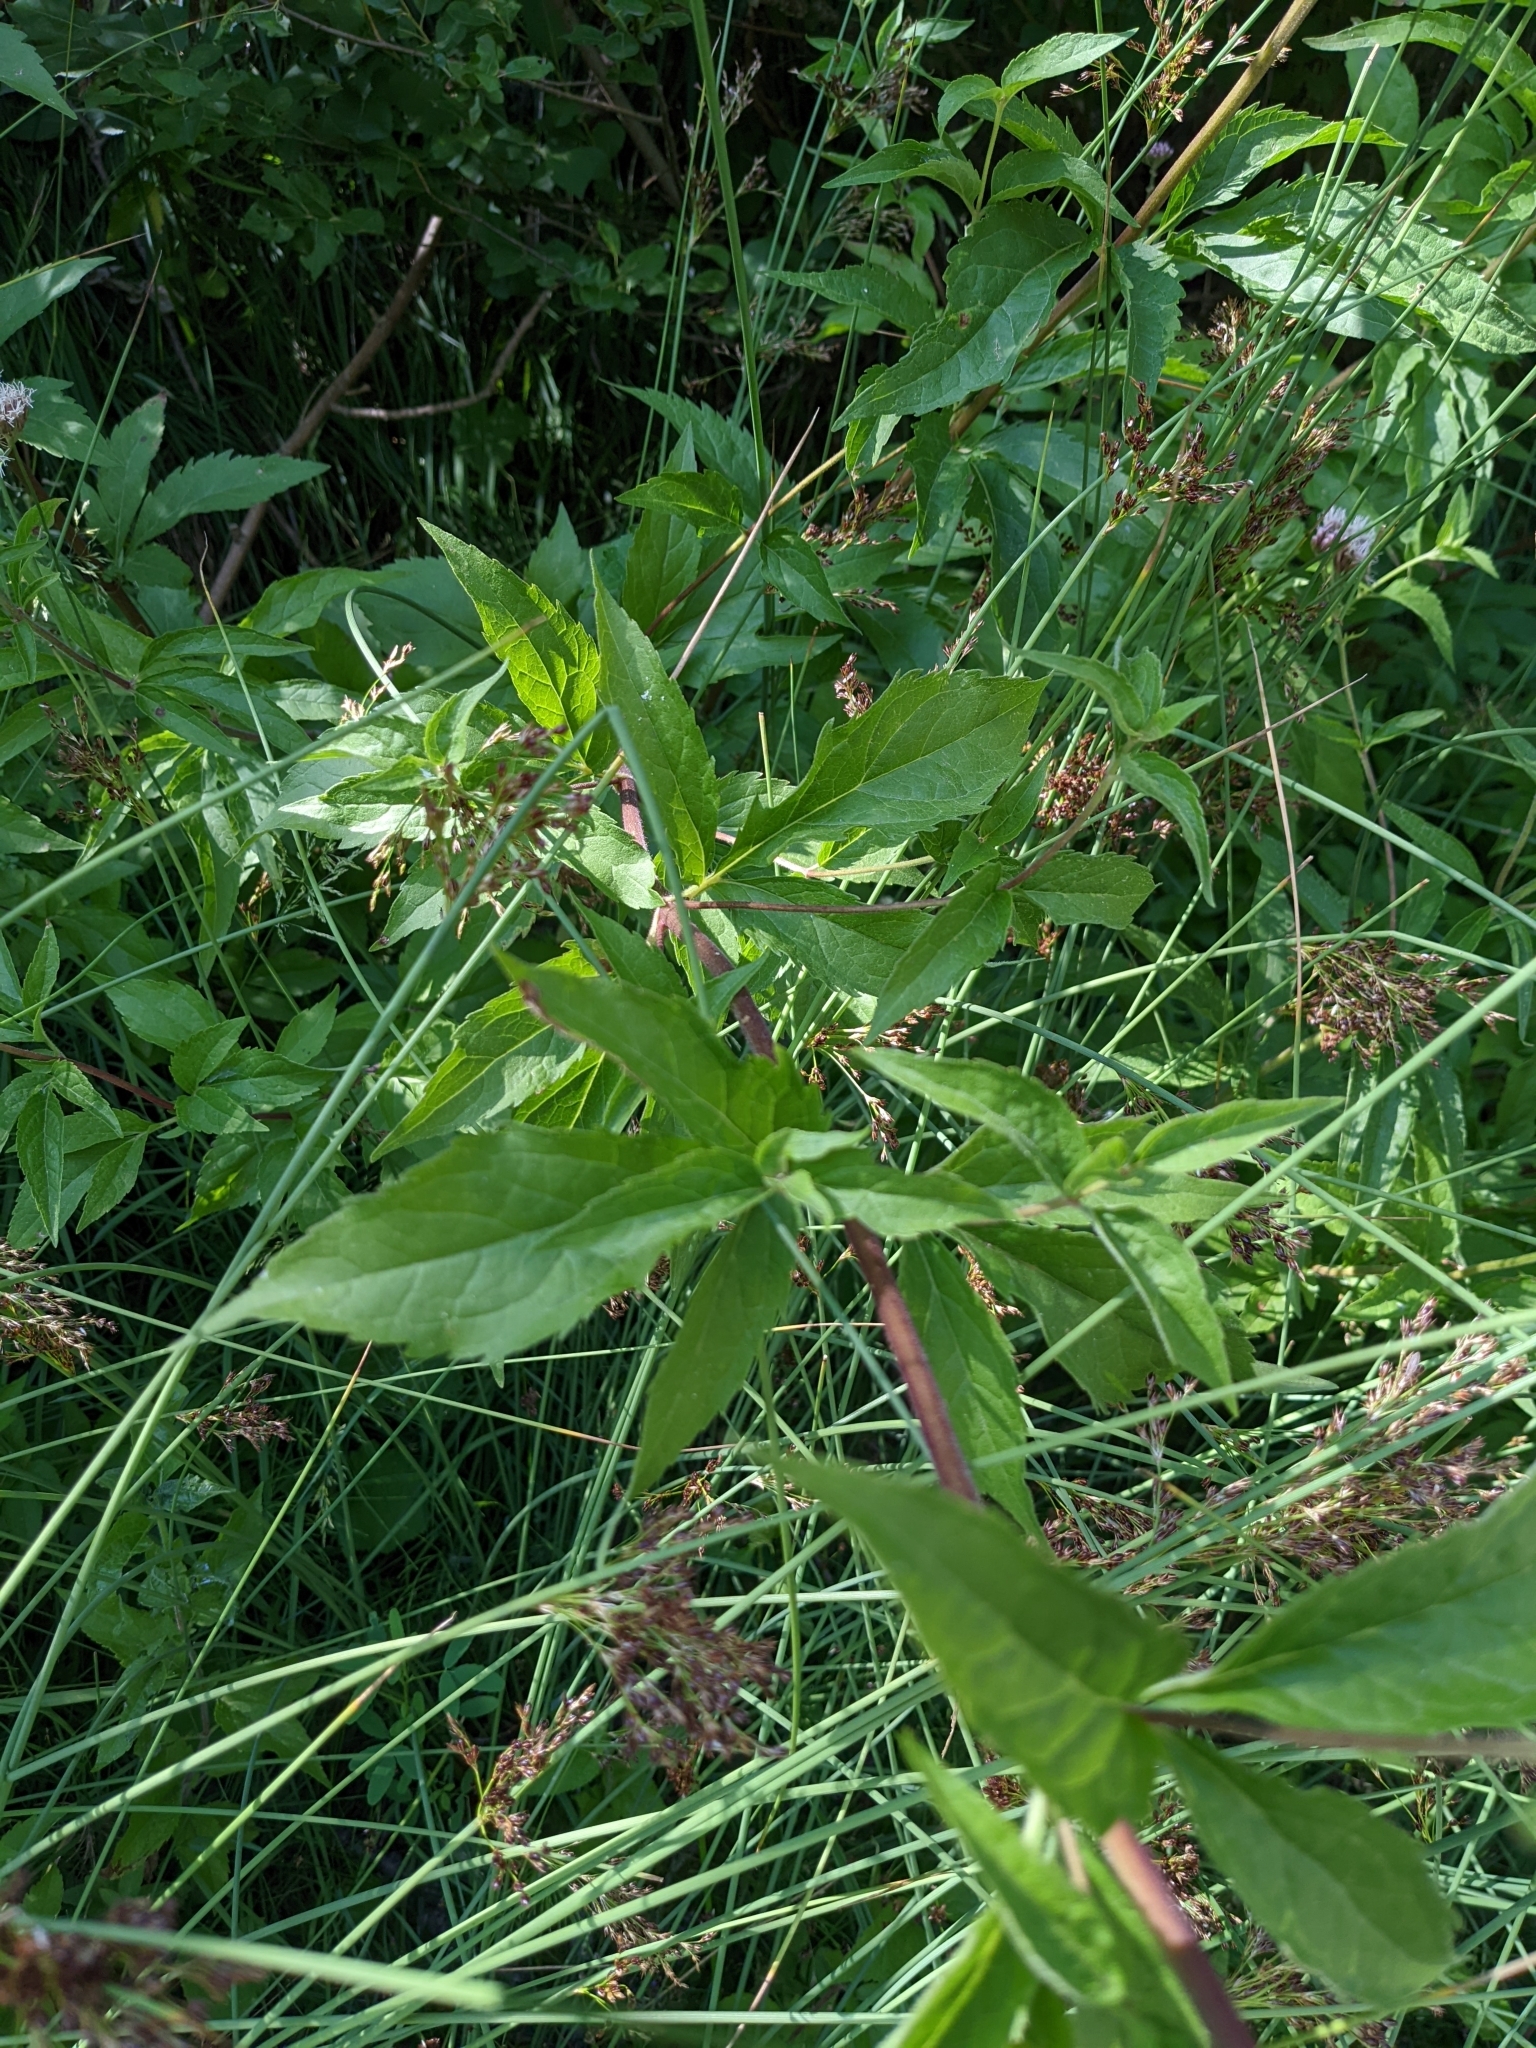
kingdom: Plantae
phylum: Tracheophyta
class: Magnoliopsida
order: Asterales
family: Asteraceae
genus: Eupatorium
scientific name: Eupatorium cannabinum
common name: Hemp-agrimony
